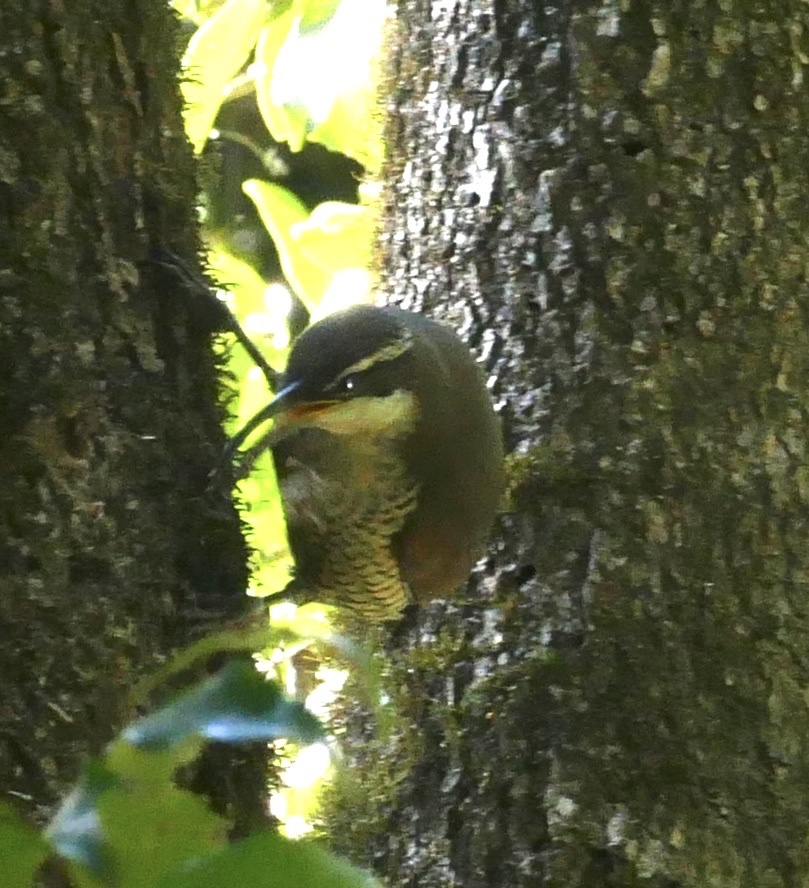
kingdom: Animalia
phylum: Chordata
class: Aves
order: Passeriformes
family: Paradisaeidae
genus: Ptiloris
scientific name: Ptiloris paradiseus
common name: Paradise riflebird
